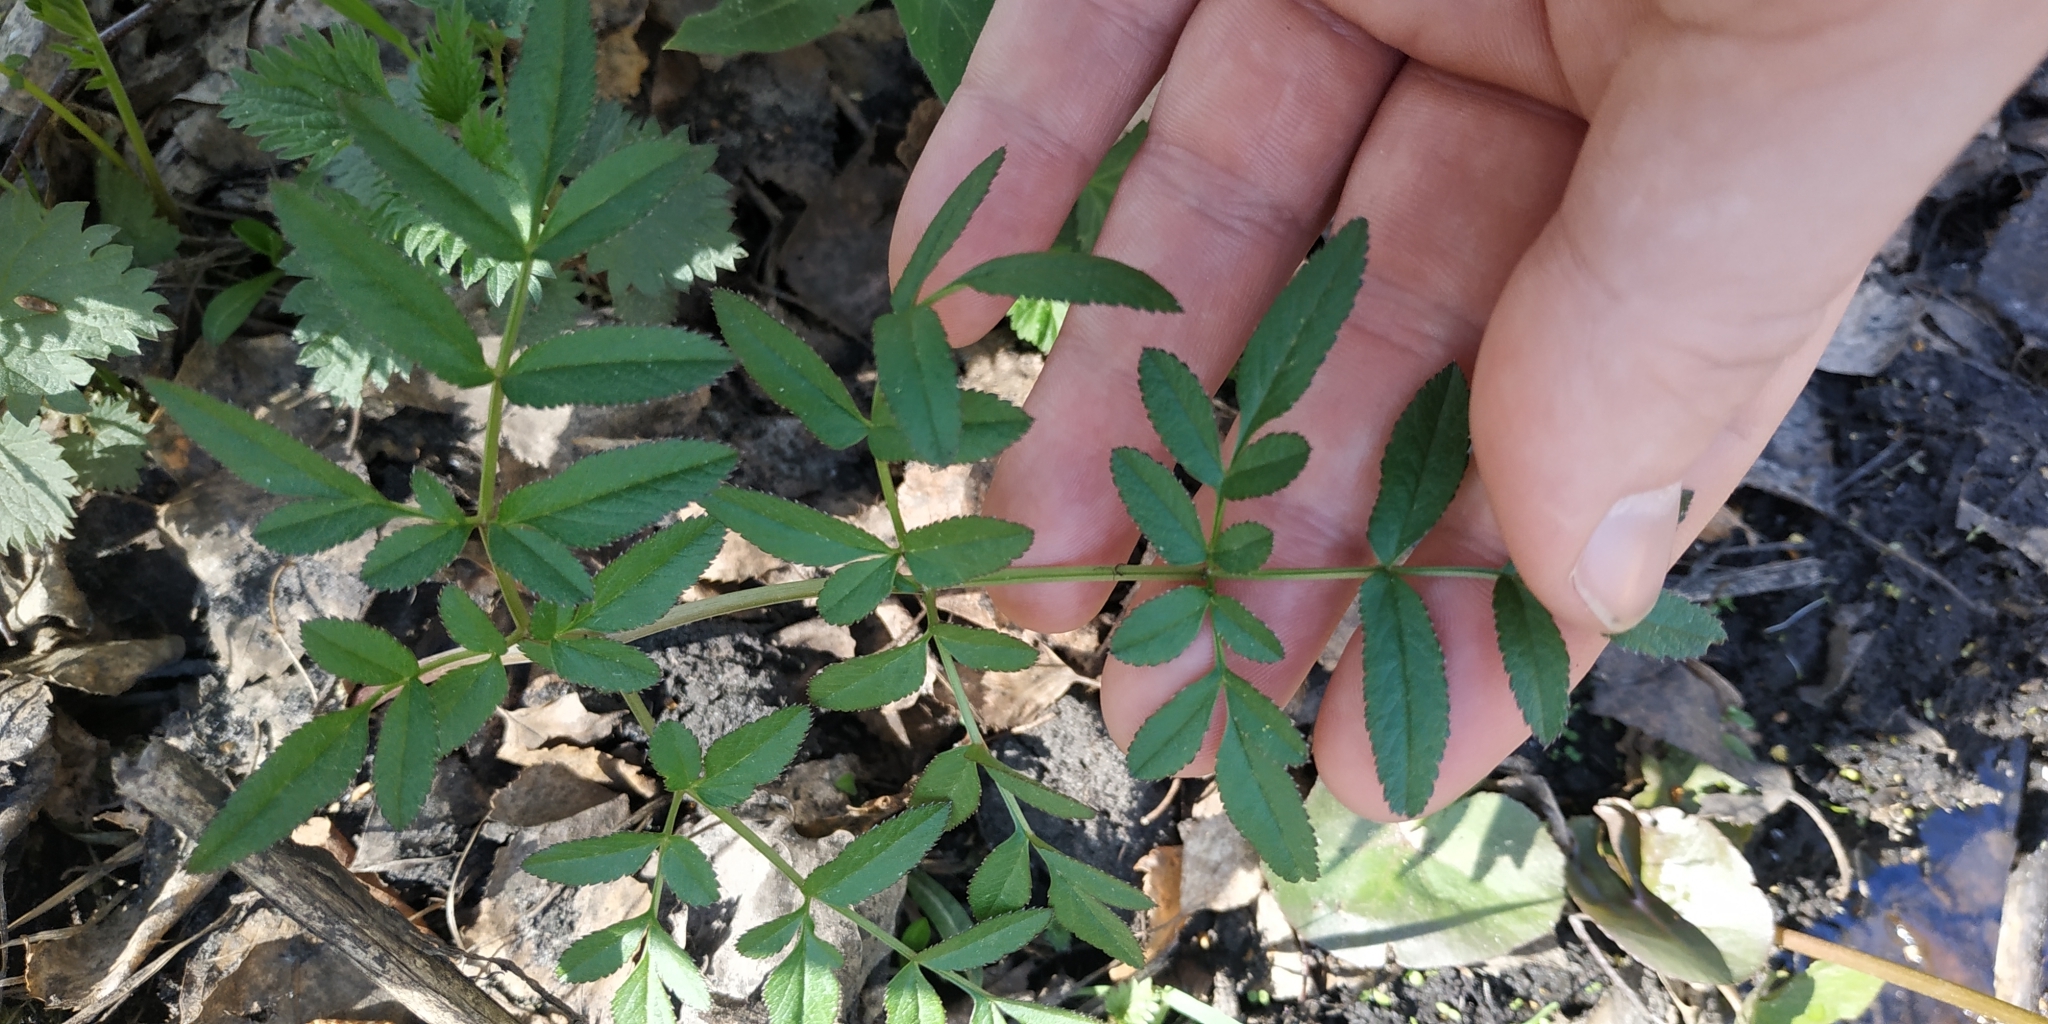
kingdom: Plantae
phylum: Tracheophyta
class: Magnoliopsida
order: Apiales
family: Apiaceae
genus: Angelica
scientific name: Angelica sylvestris
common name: Wild angelica
